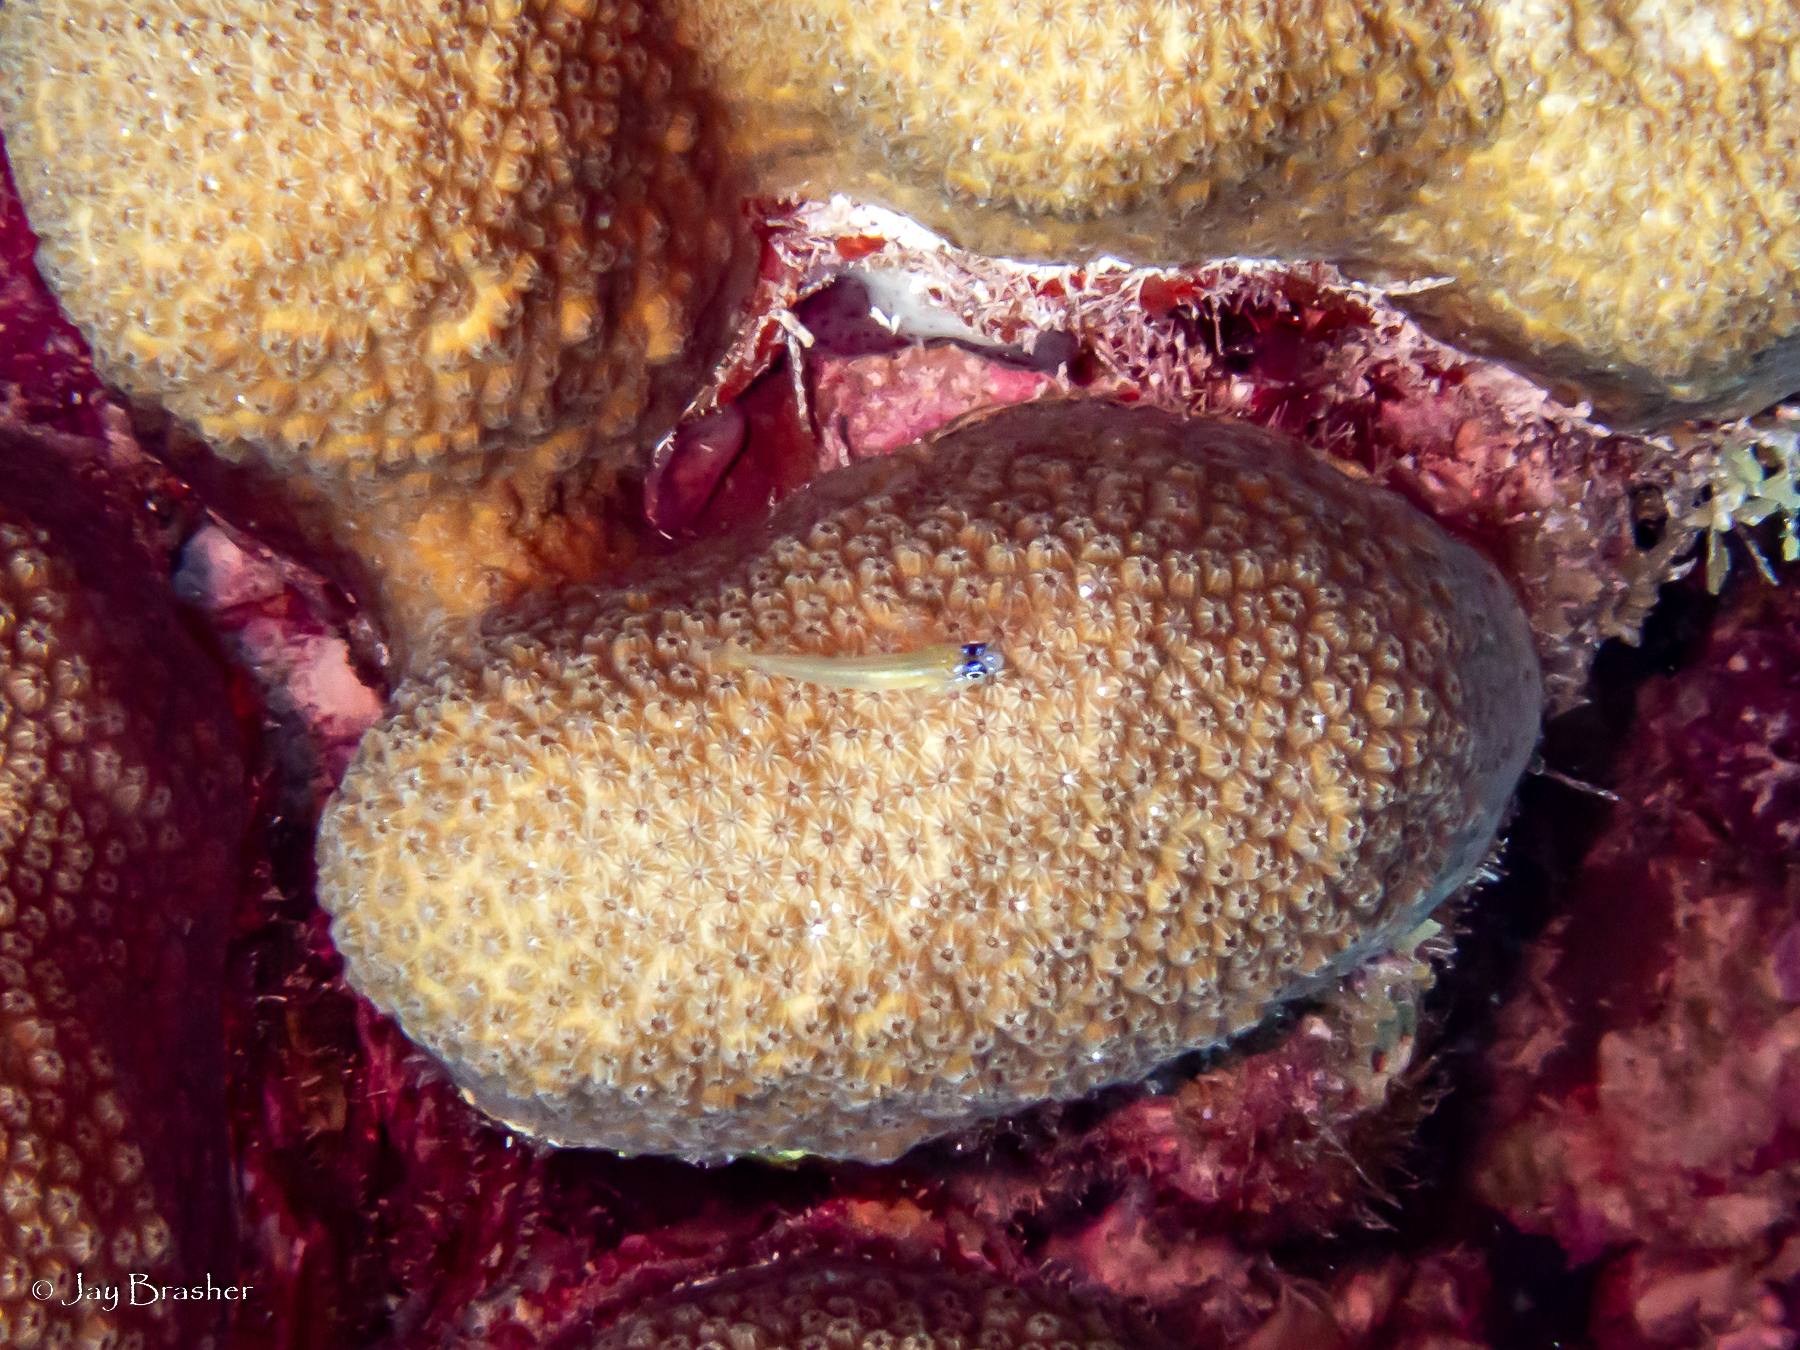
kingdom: Animalia
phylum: Chordata
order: Perciformes
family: Gobiidae
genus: Coryphopterus
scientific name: Coryphopterus lipernes
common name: Peppermint goby
